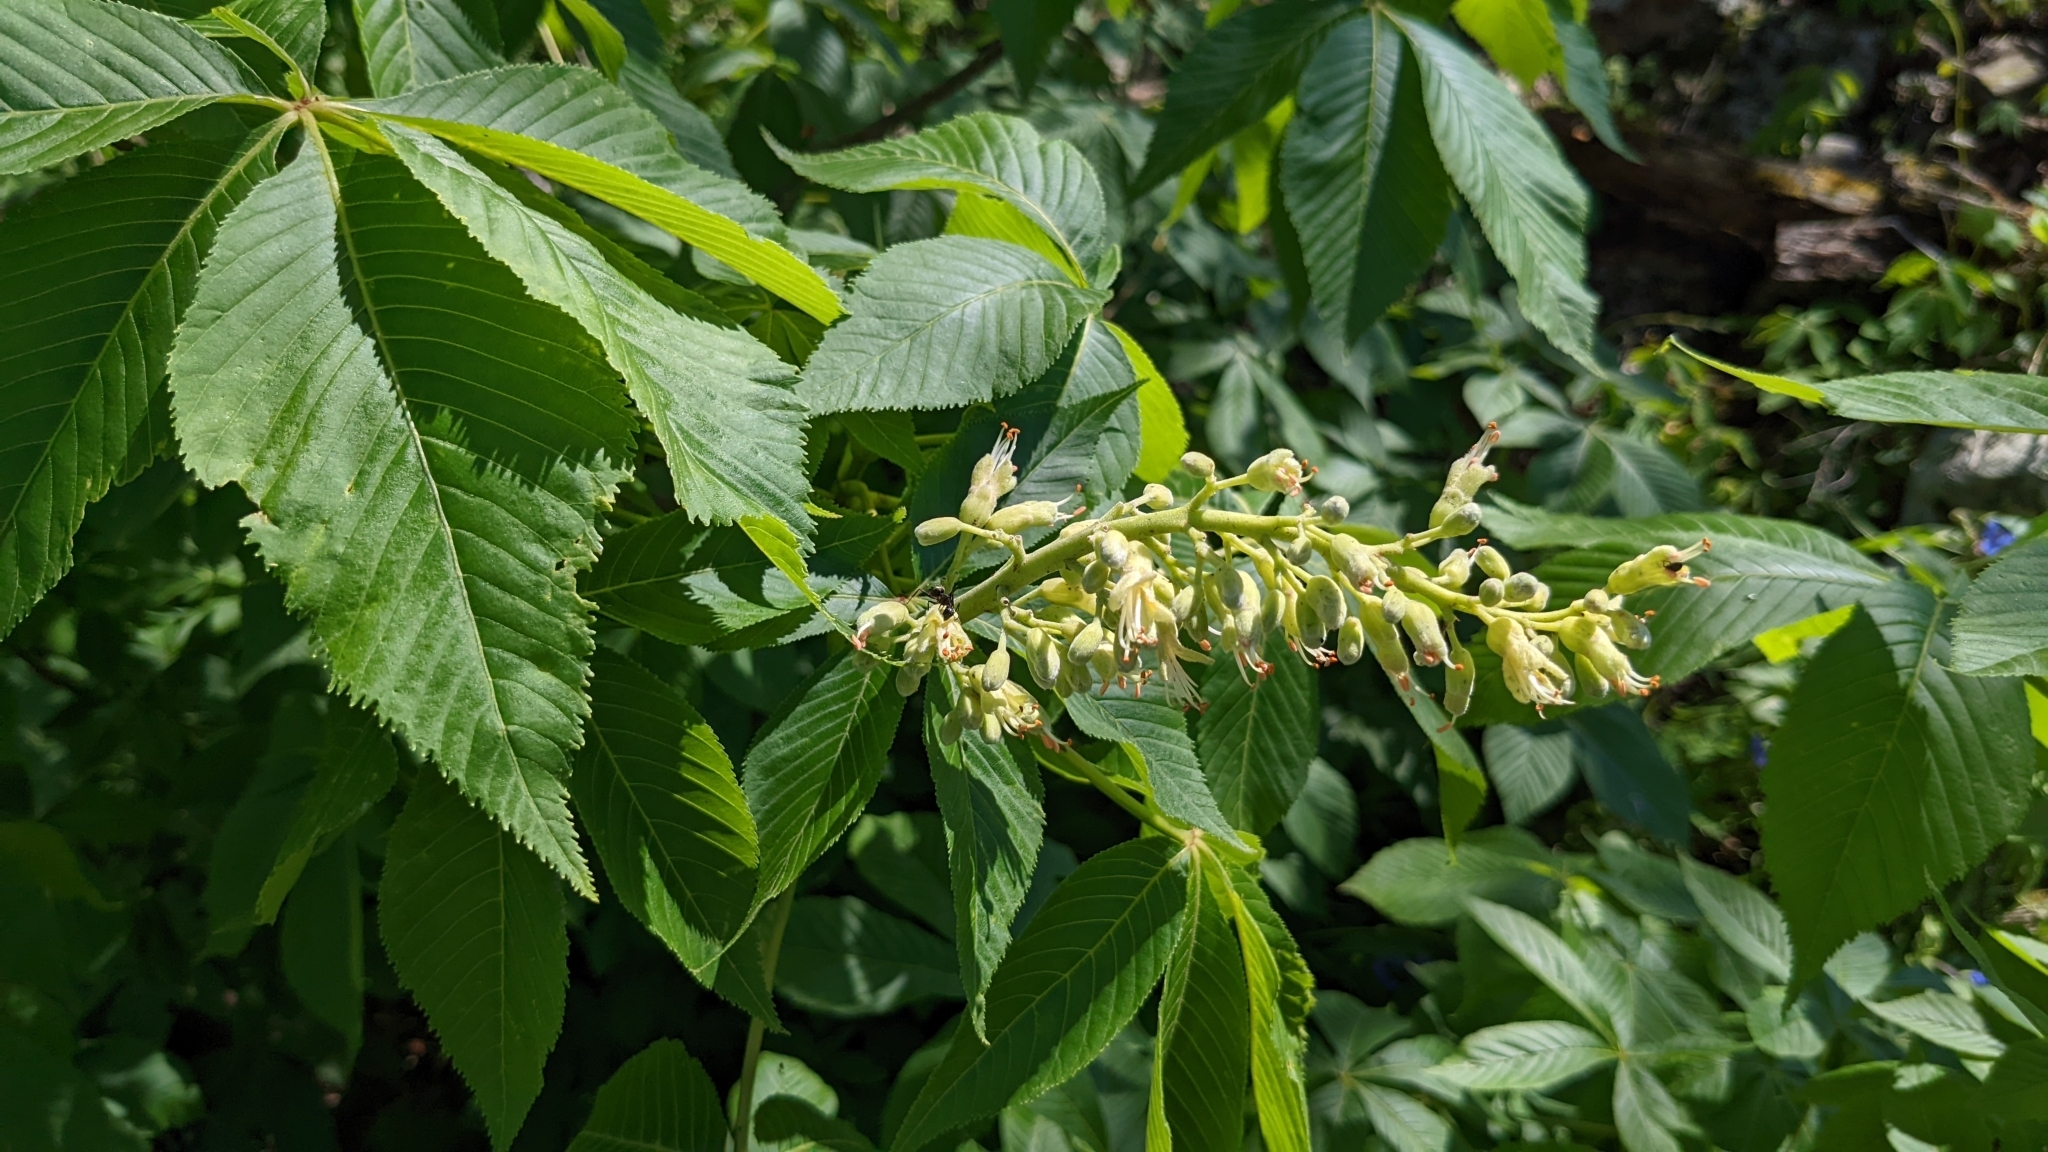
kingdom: Plantae
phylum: Tracheophyta
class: Magnoliopsida
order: Sapindales
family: Sapindaceae
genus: Aesculus
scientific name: Aesculus glabra
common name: Ohio buckeye
